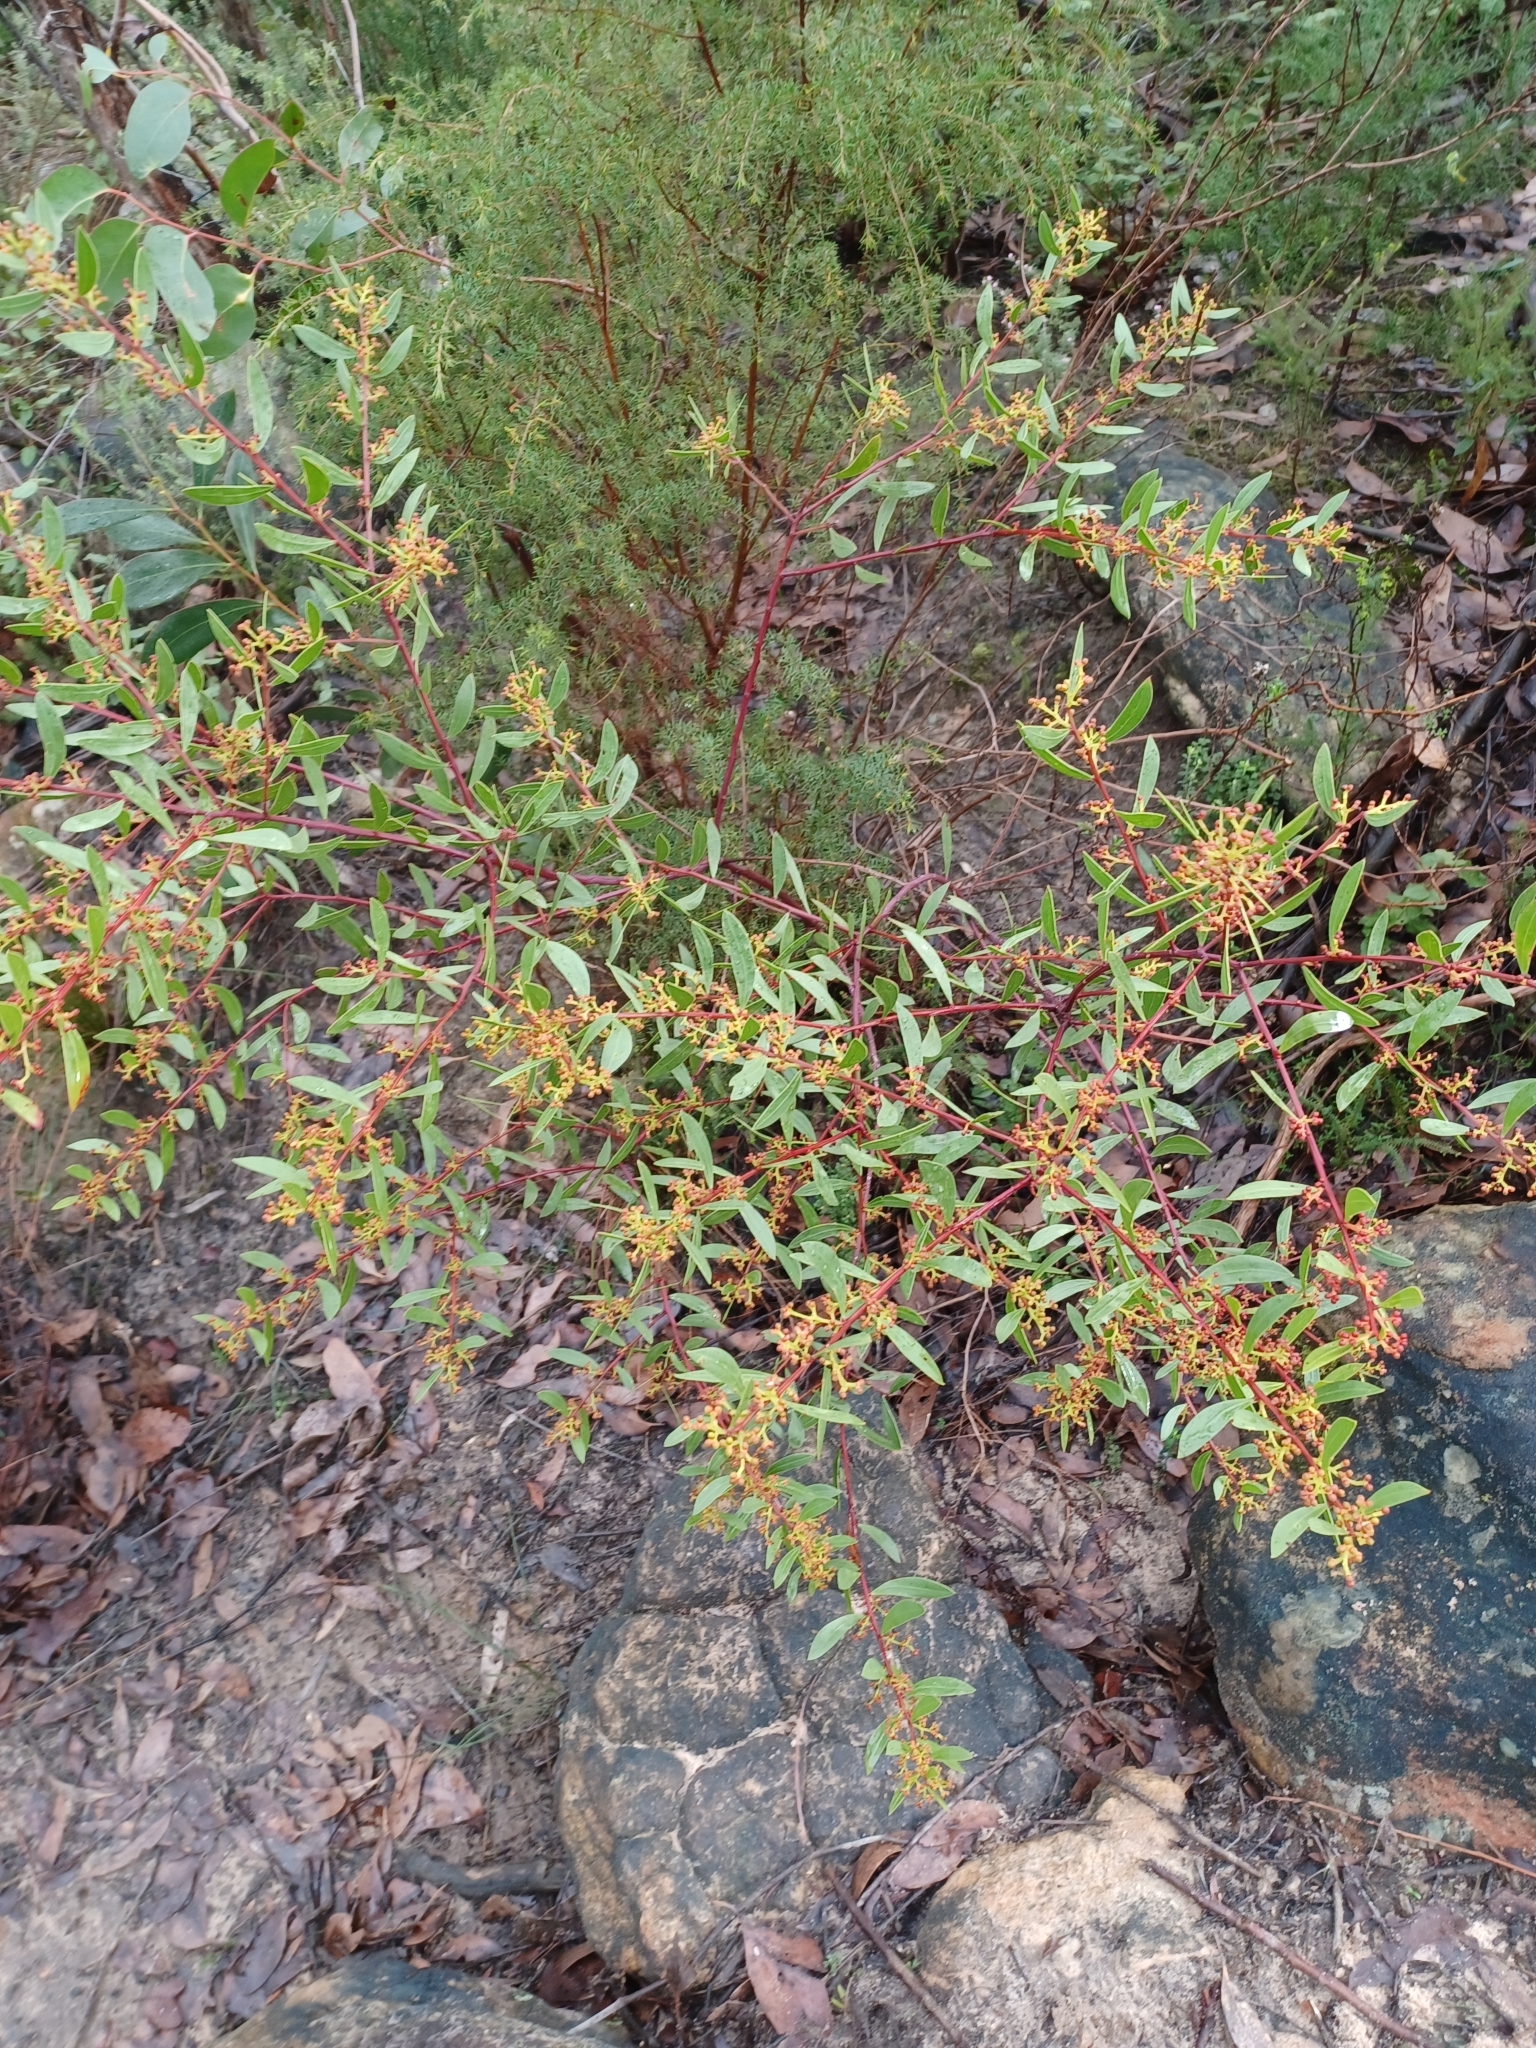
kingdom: Plantae
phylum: Tracheophyta
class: Magnoliopsida
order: Fabales
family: Fabaceae
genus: Acacia
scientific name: Acacia myrtifolia
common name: Myrtle wattle
